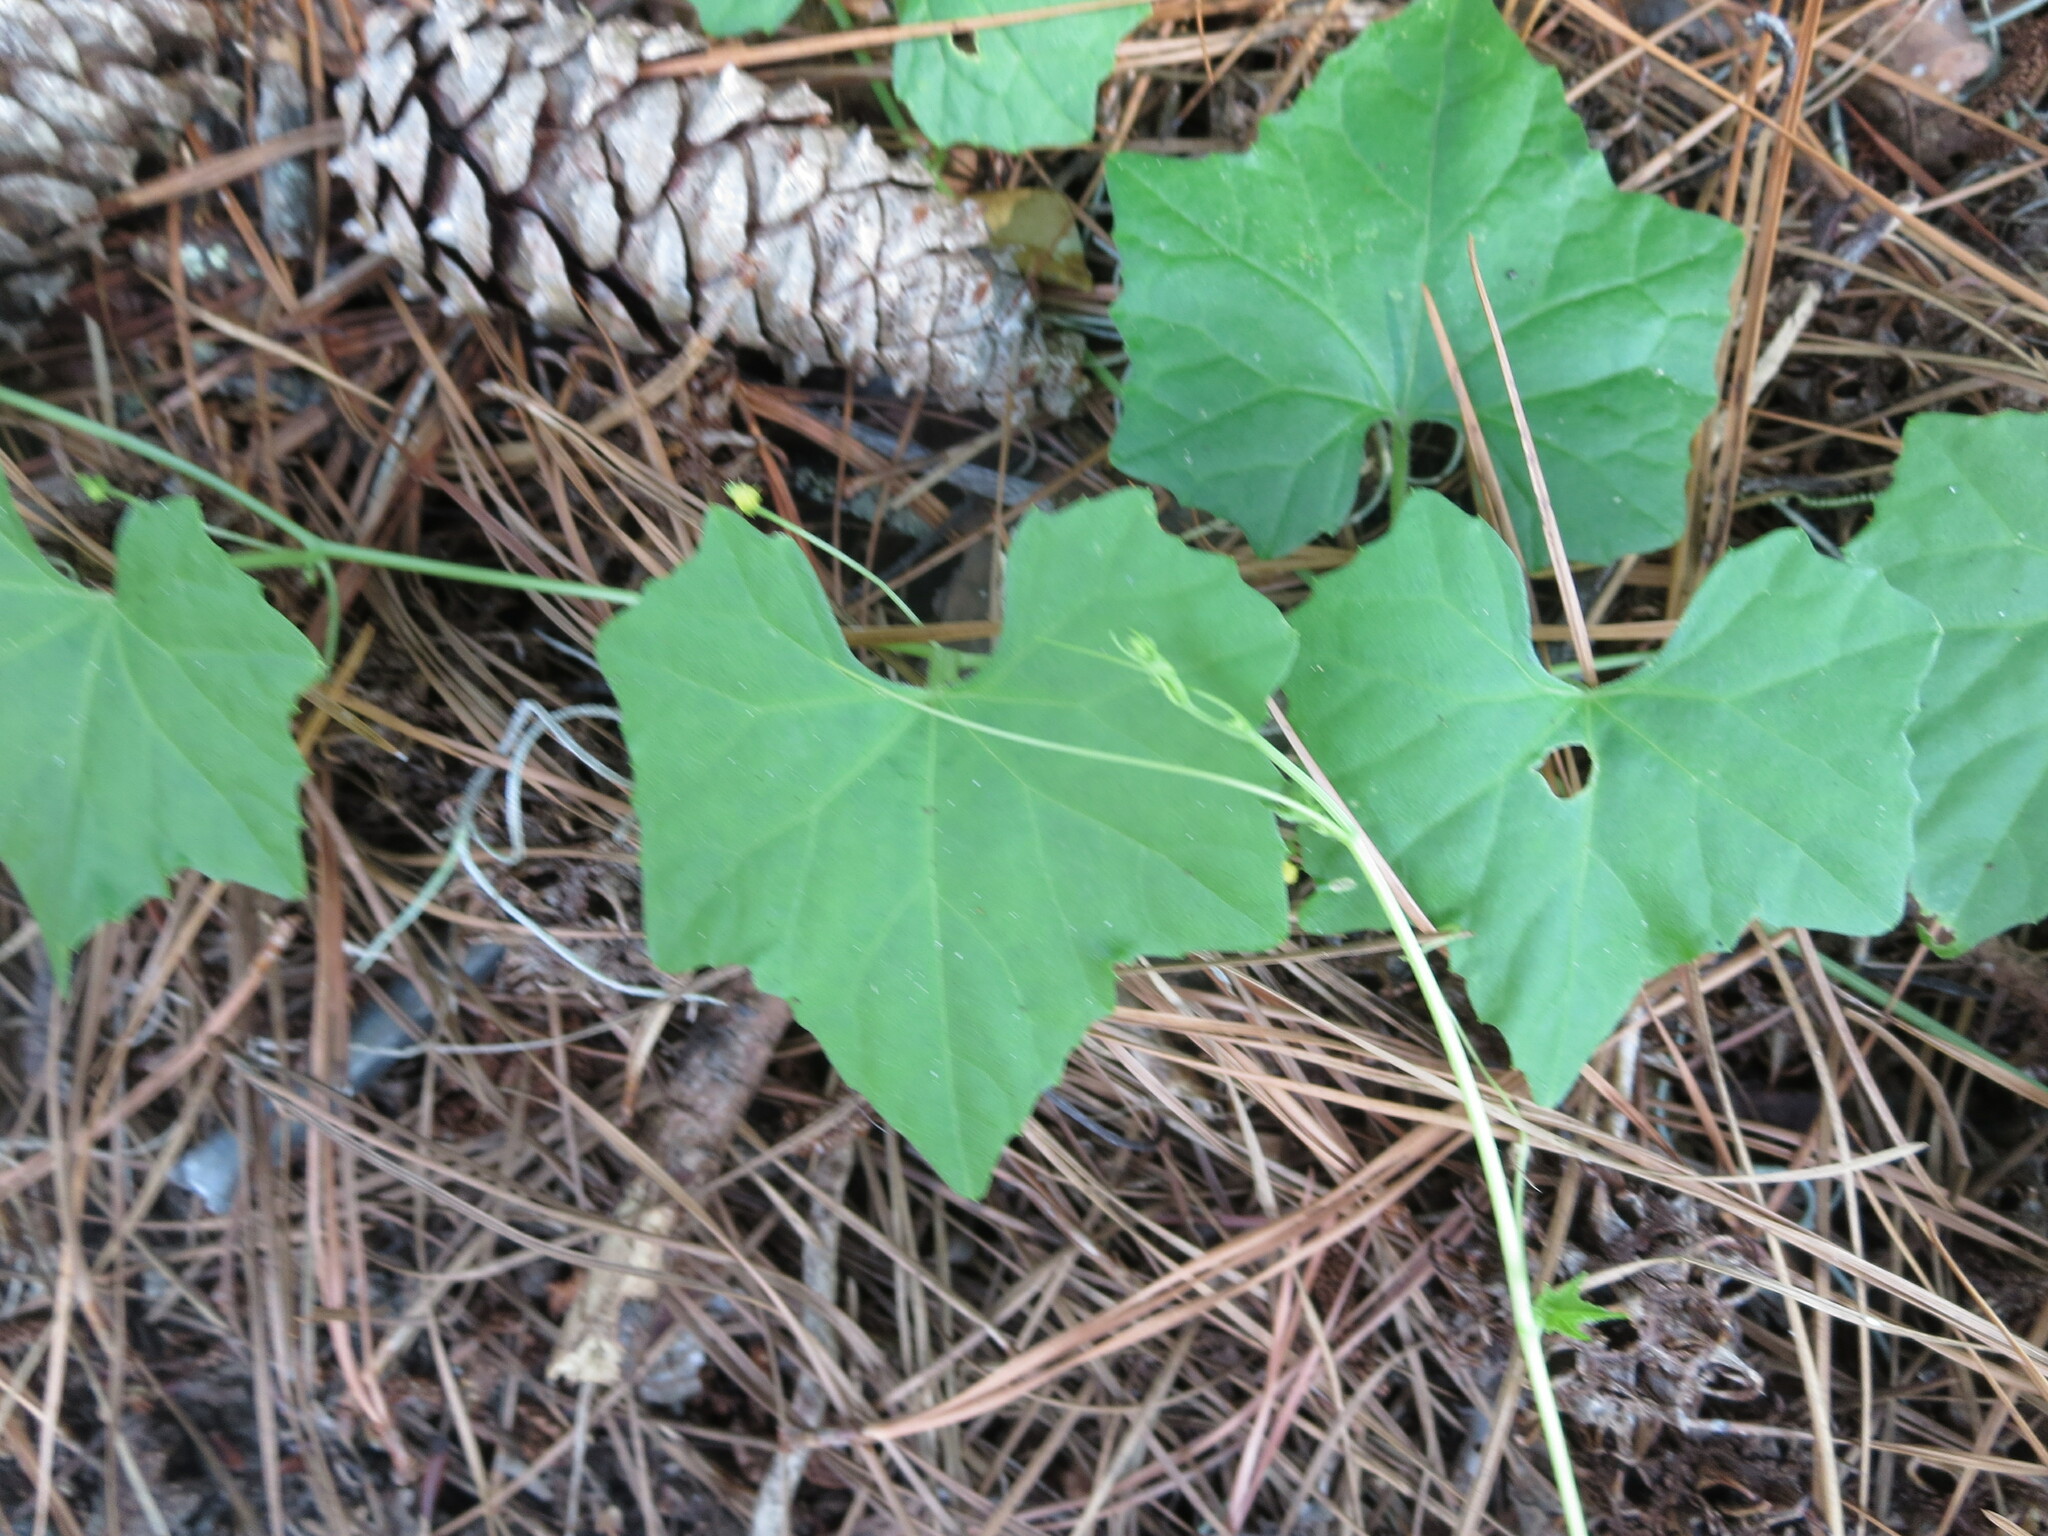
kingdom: Plantae
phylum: Tracheophyta
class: Magnoliopsida
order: Cucurbitales
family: Cucurbitaceae
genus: Melothria
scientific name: Melothria pendula
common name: Creeping-cucumber
